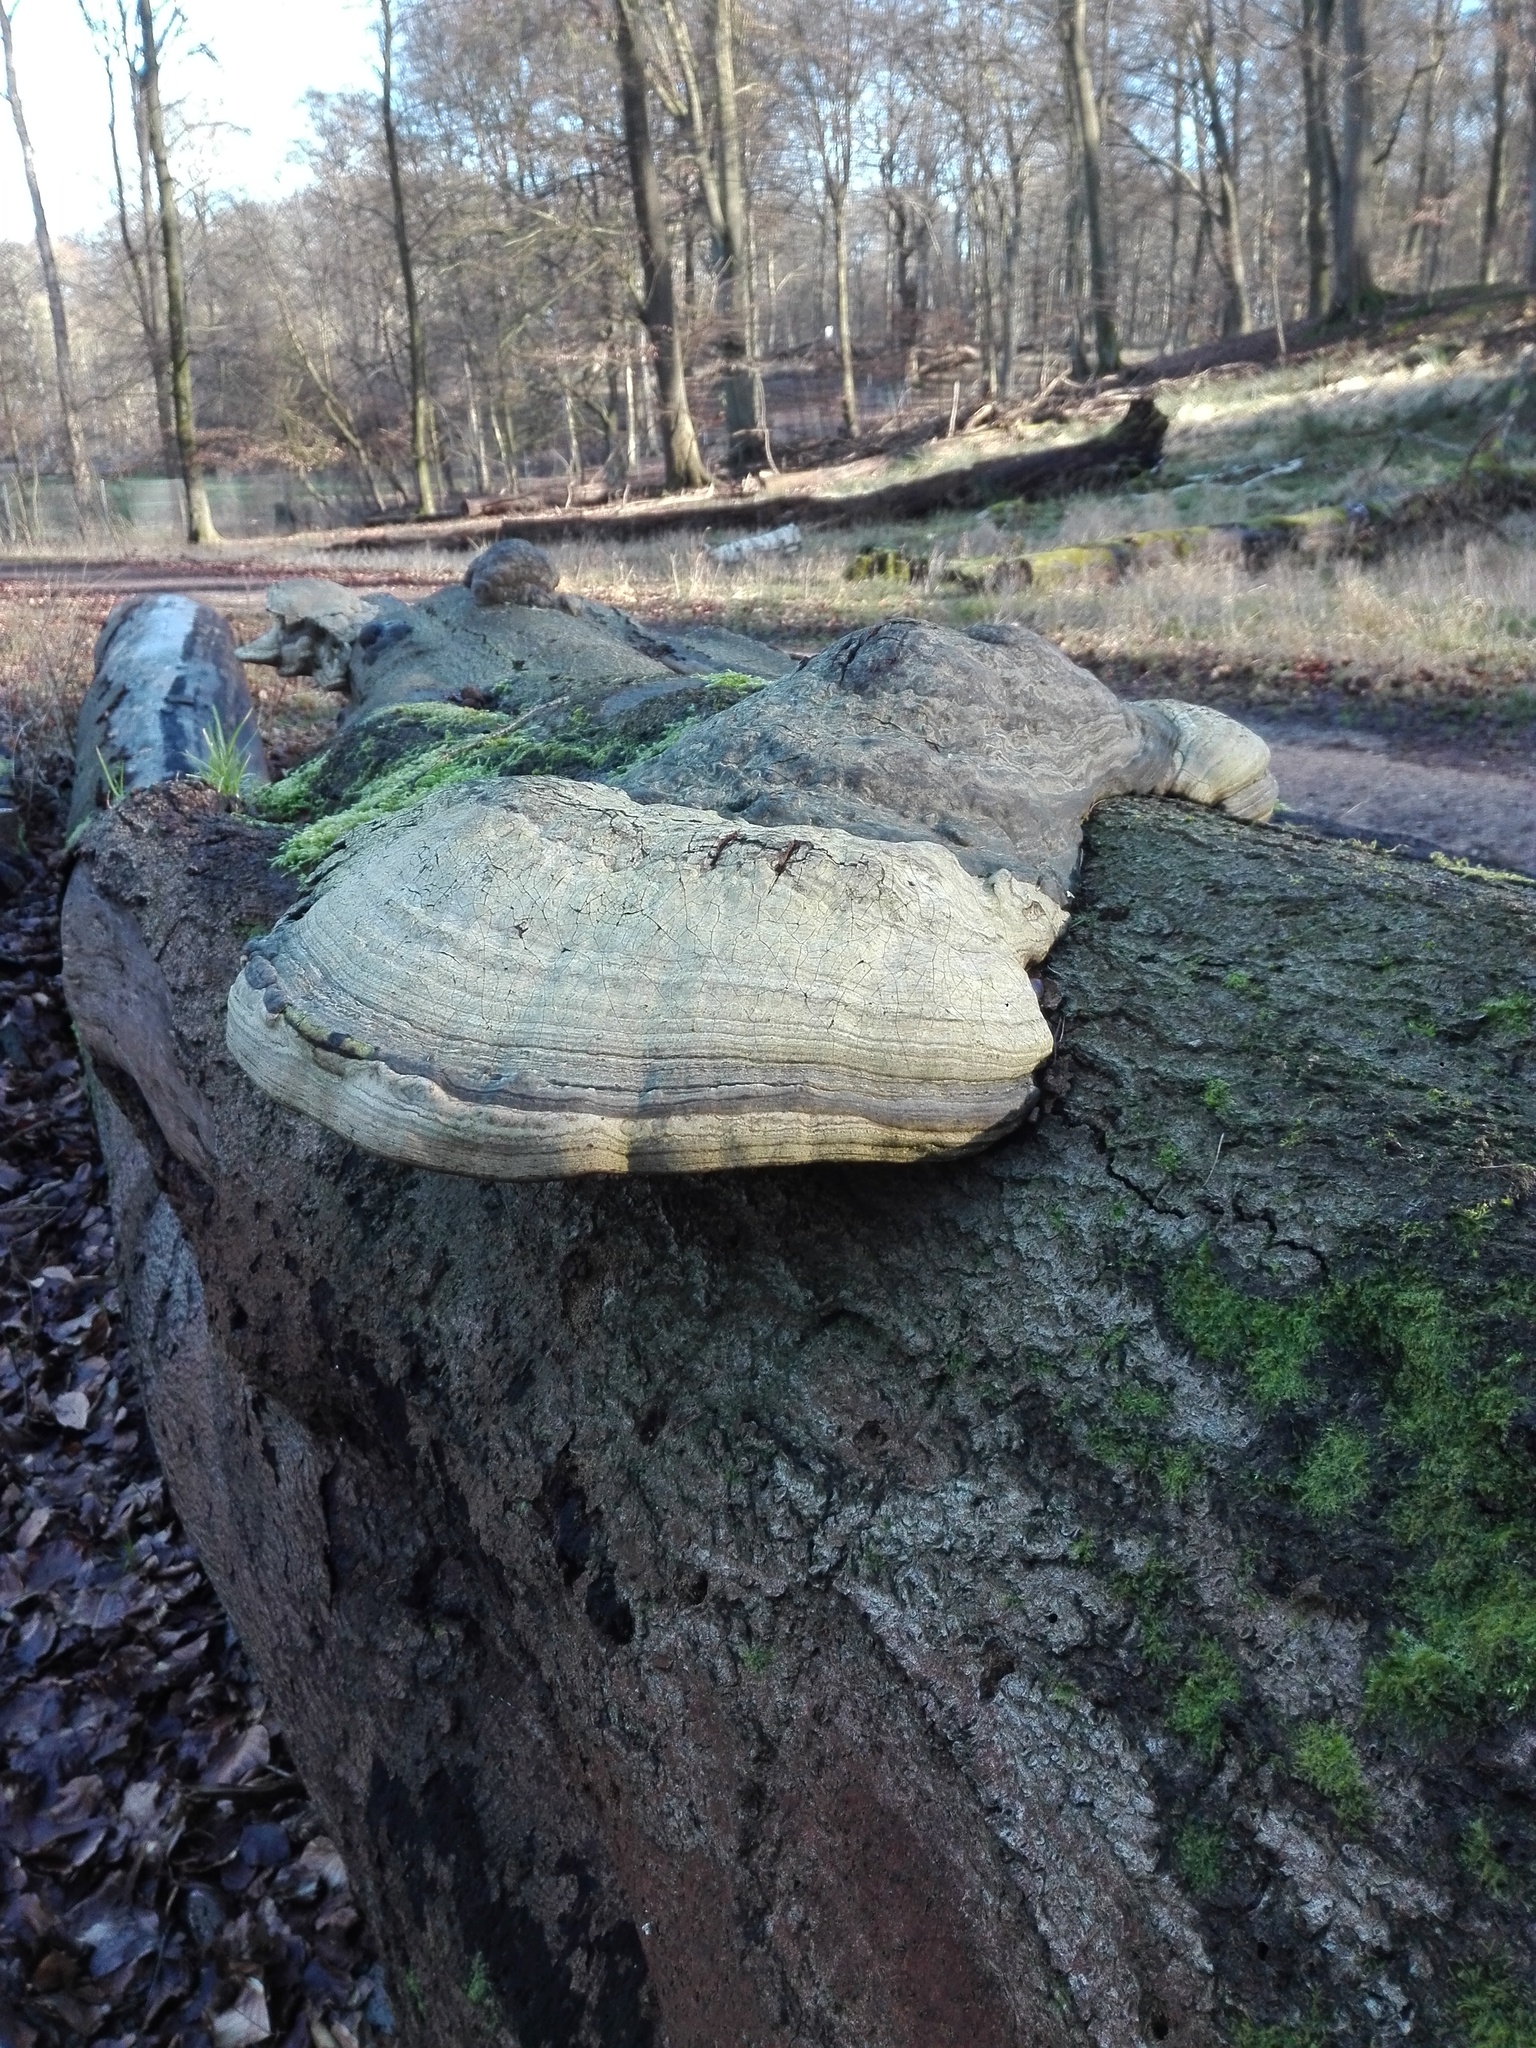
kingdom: Fungi
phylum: Basidiomycota
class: Agaricomycetes
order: Polyporales
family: Polyporaceae
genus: Fomes
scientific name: Fomes fomentarius
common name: Hoof fungus
